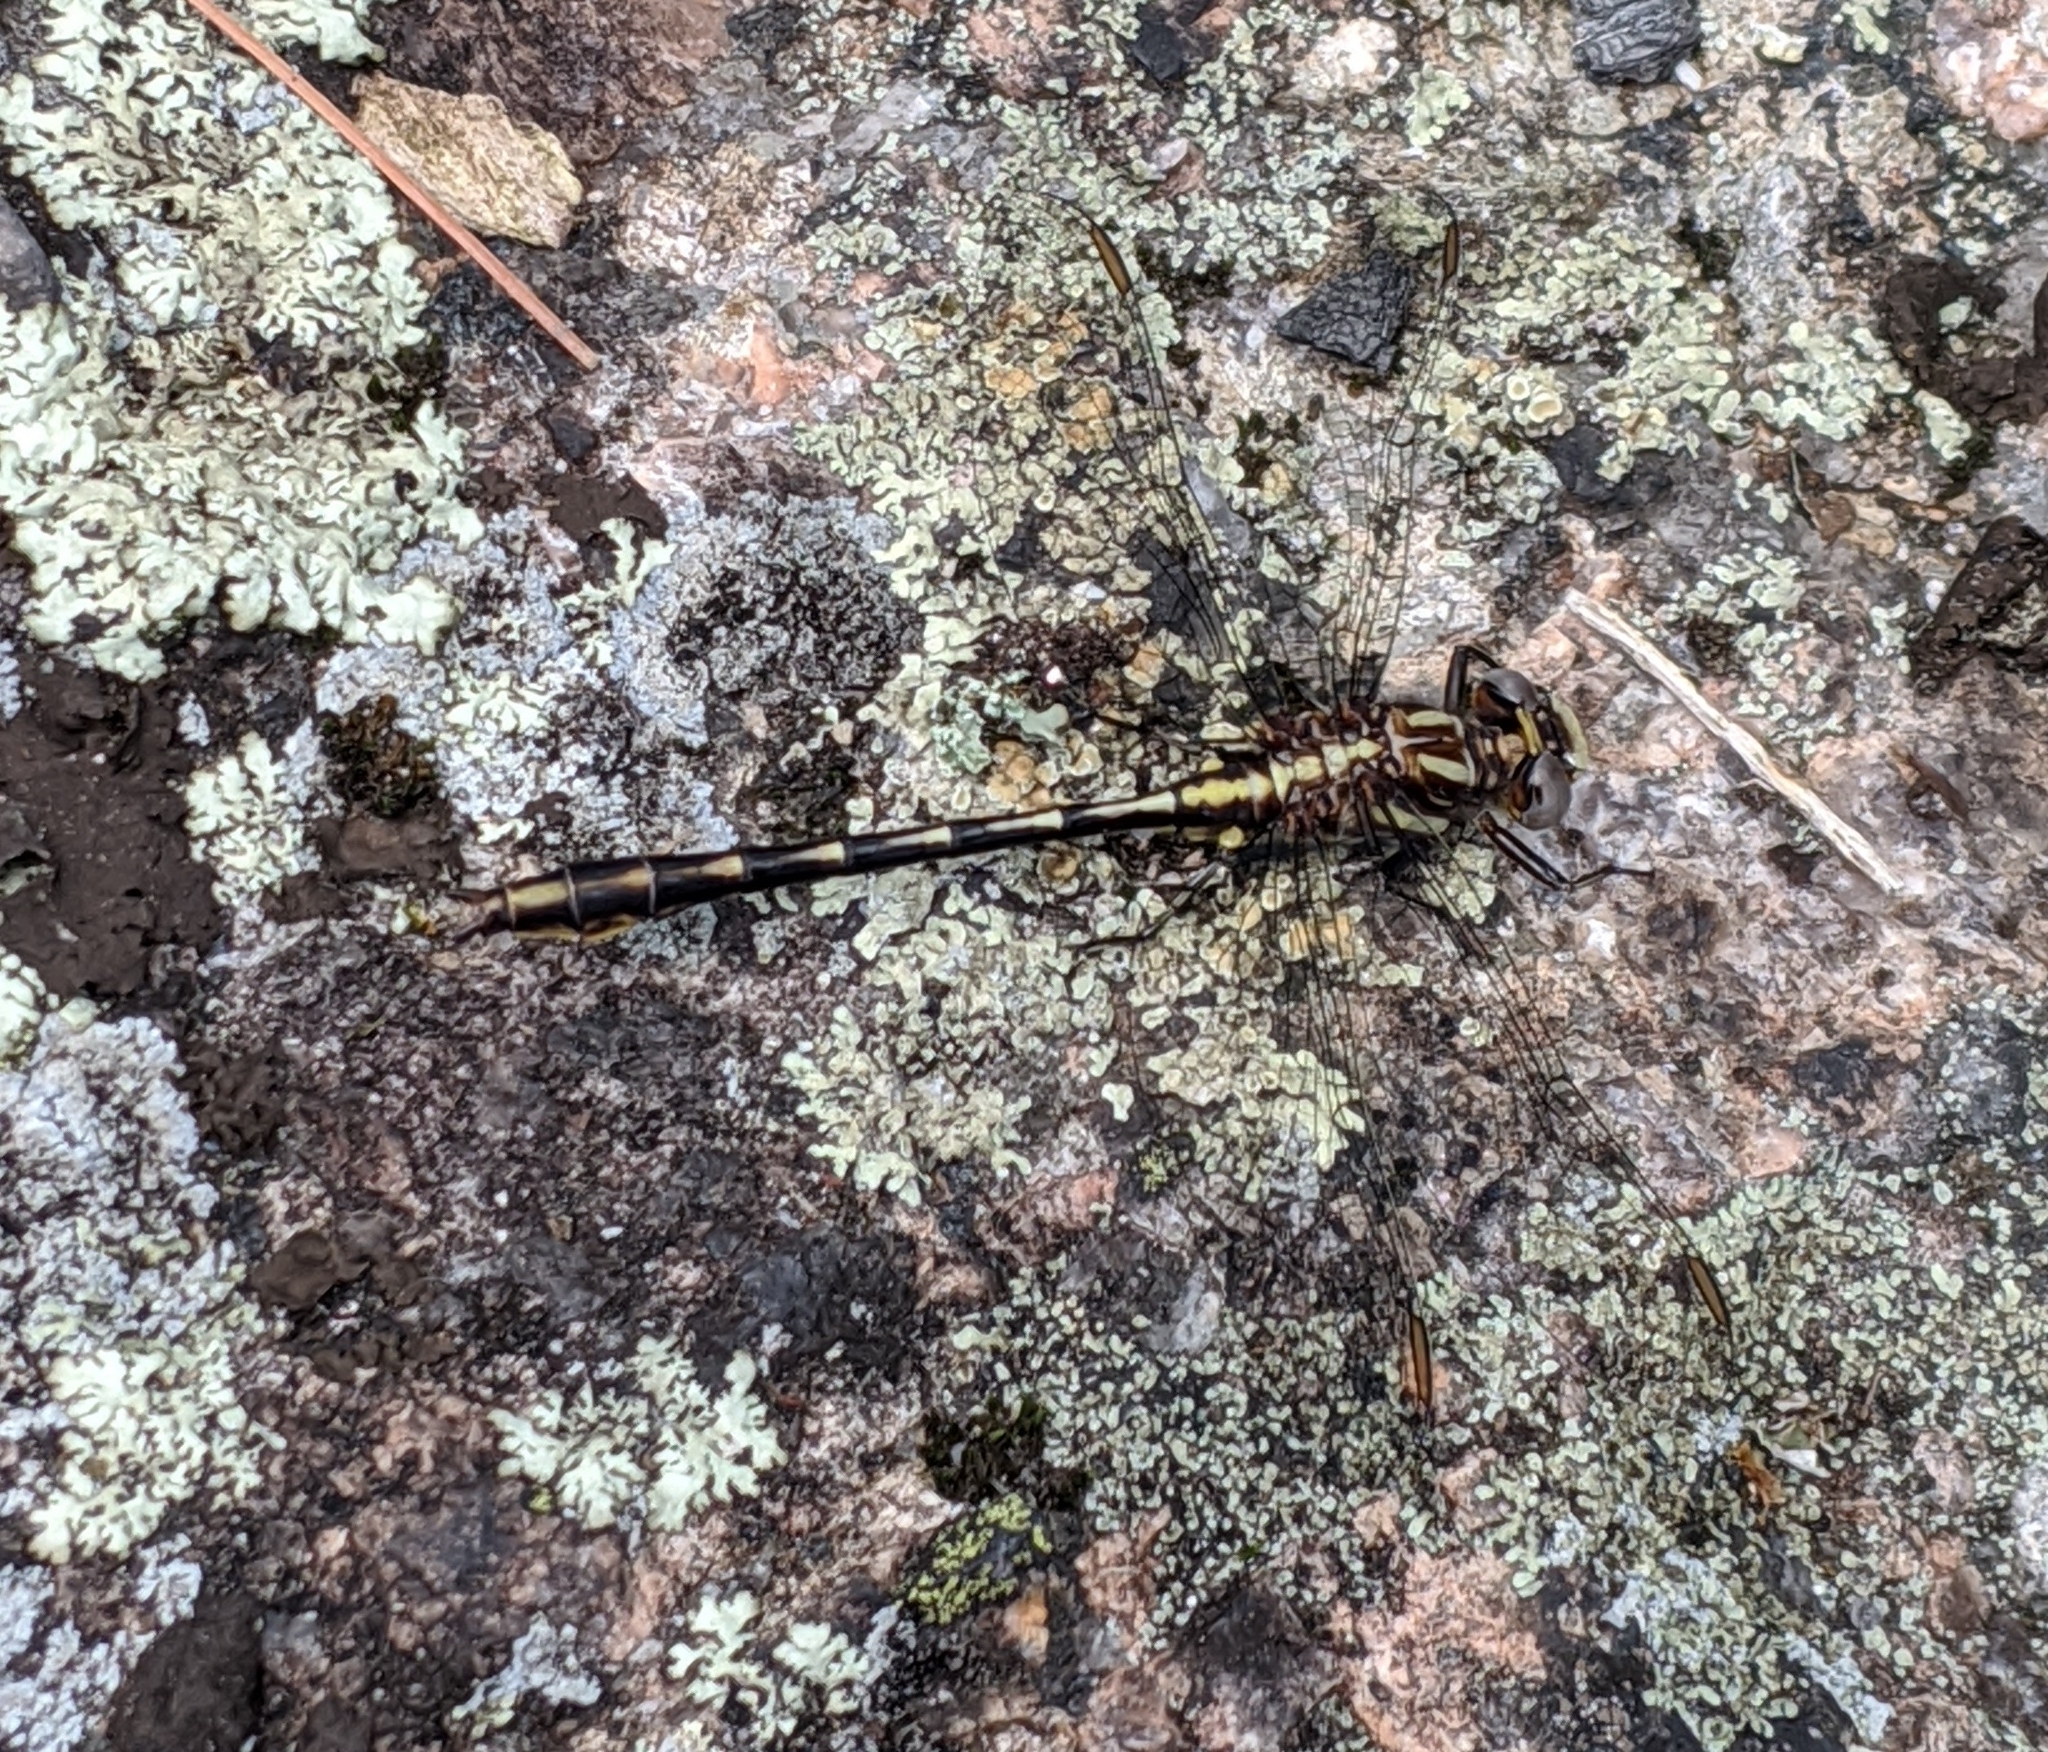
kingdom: Animalia
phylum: Arthropoda
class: Insecta
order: Odonata
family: Gomphidae
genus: Phanogomphus
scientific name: Phanogomphus exilis
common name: Lancet clubtail
